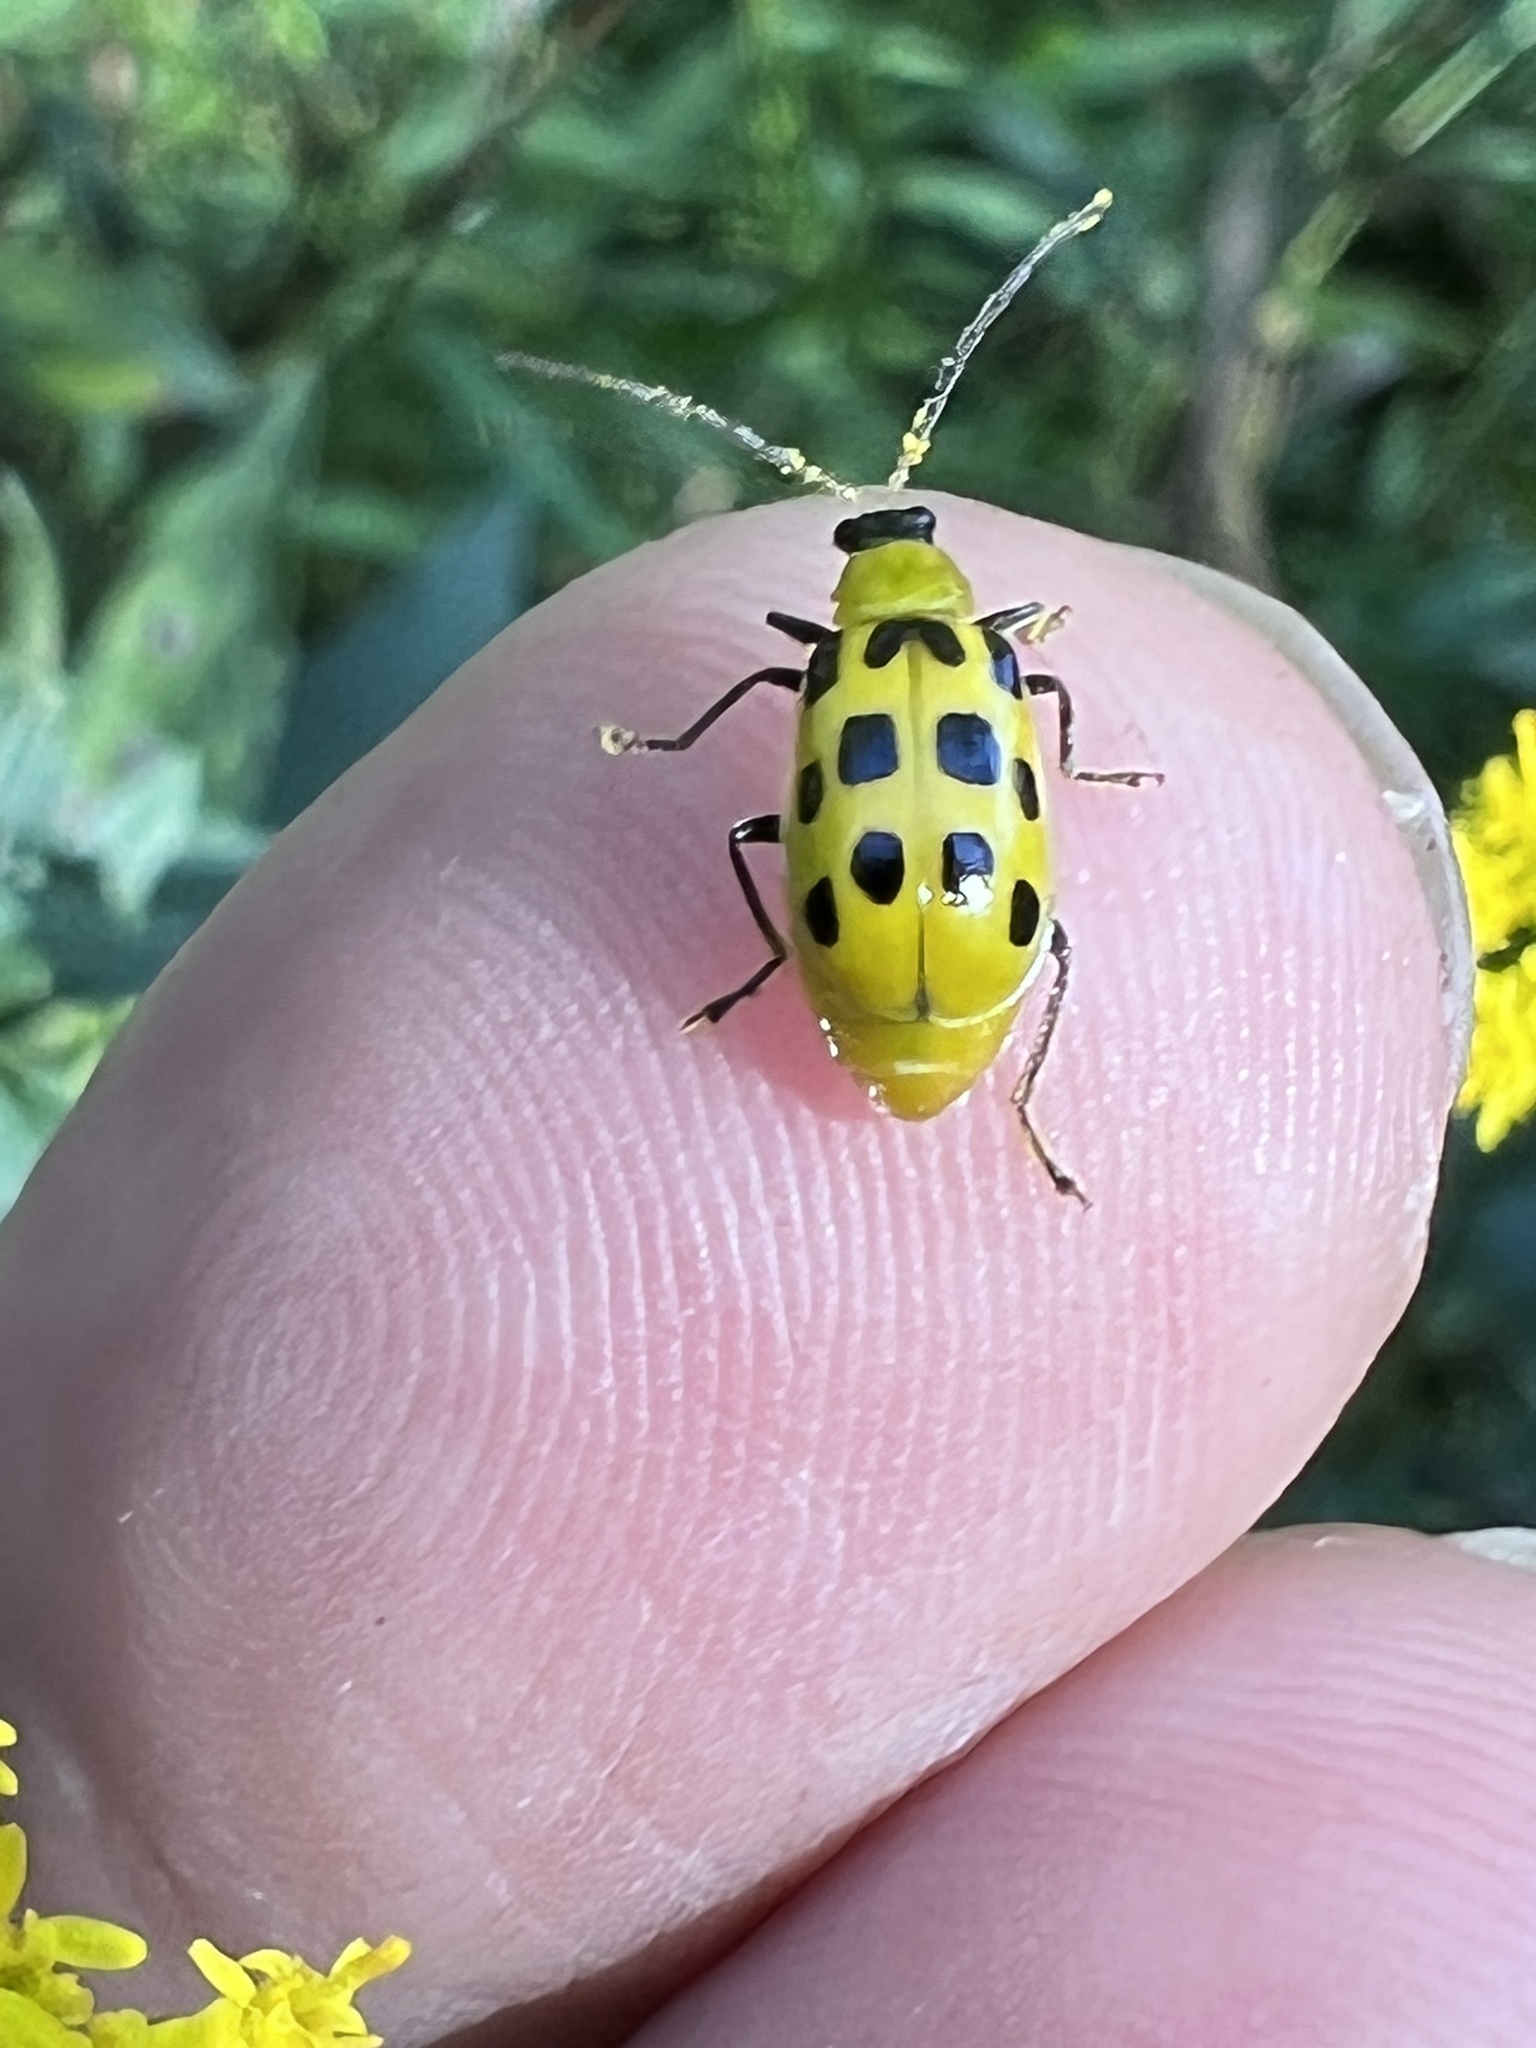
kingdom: Animalia
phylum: Arthropoda
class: Insecta
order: Coleoptera
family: Chrysomelidae
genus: Diabrotica
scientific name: Diabrotica undecimpunctata
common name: Spotted cucumber beetle
